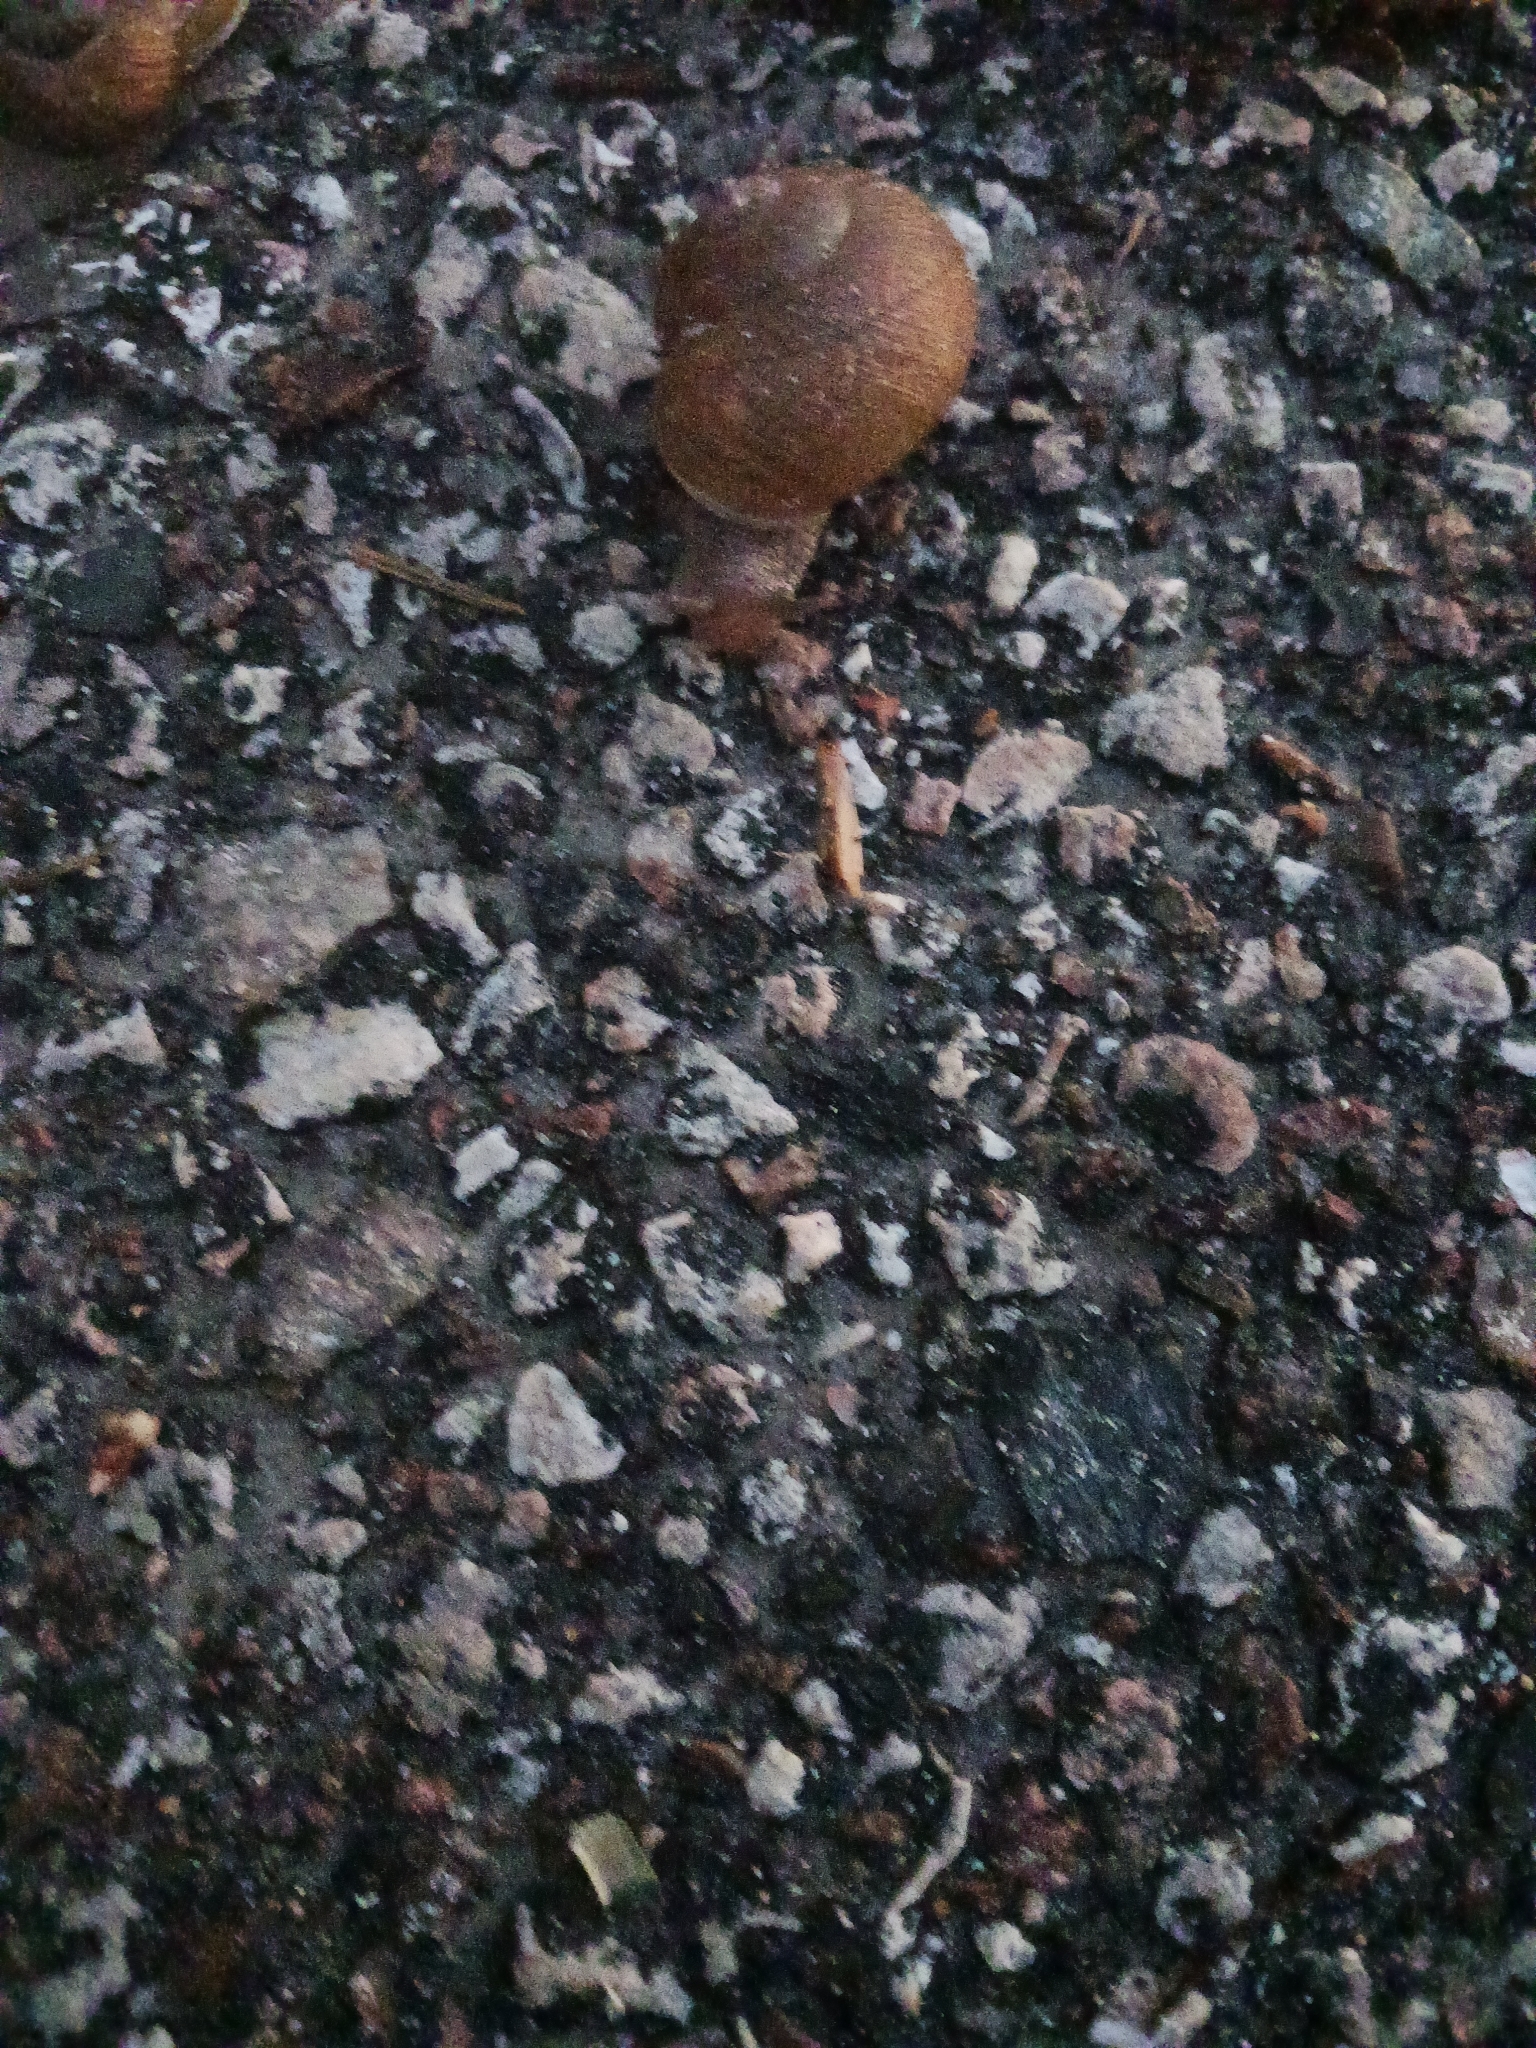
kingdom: Animalia
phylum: Mollusca
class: Gastropoda
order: Stylommatophora
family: Zachrysiidae
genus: Zachrysia
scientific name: Zachrysia provisoria
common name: Garden zachrysia
